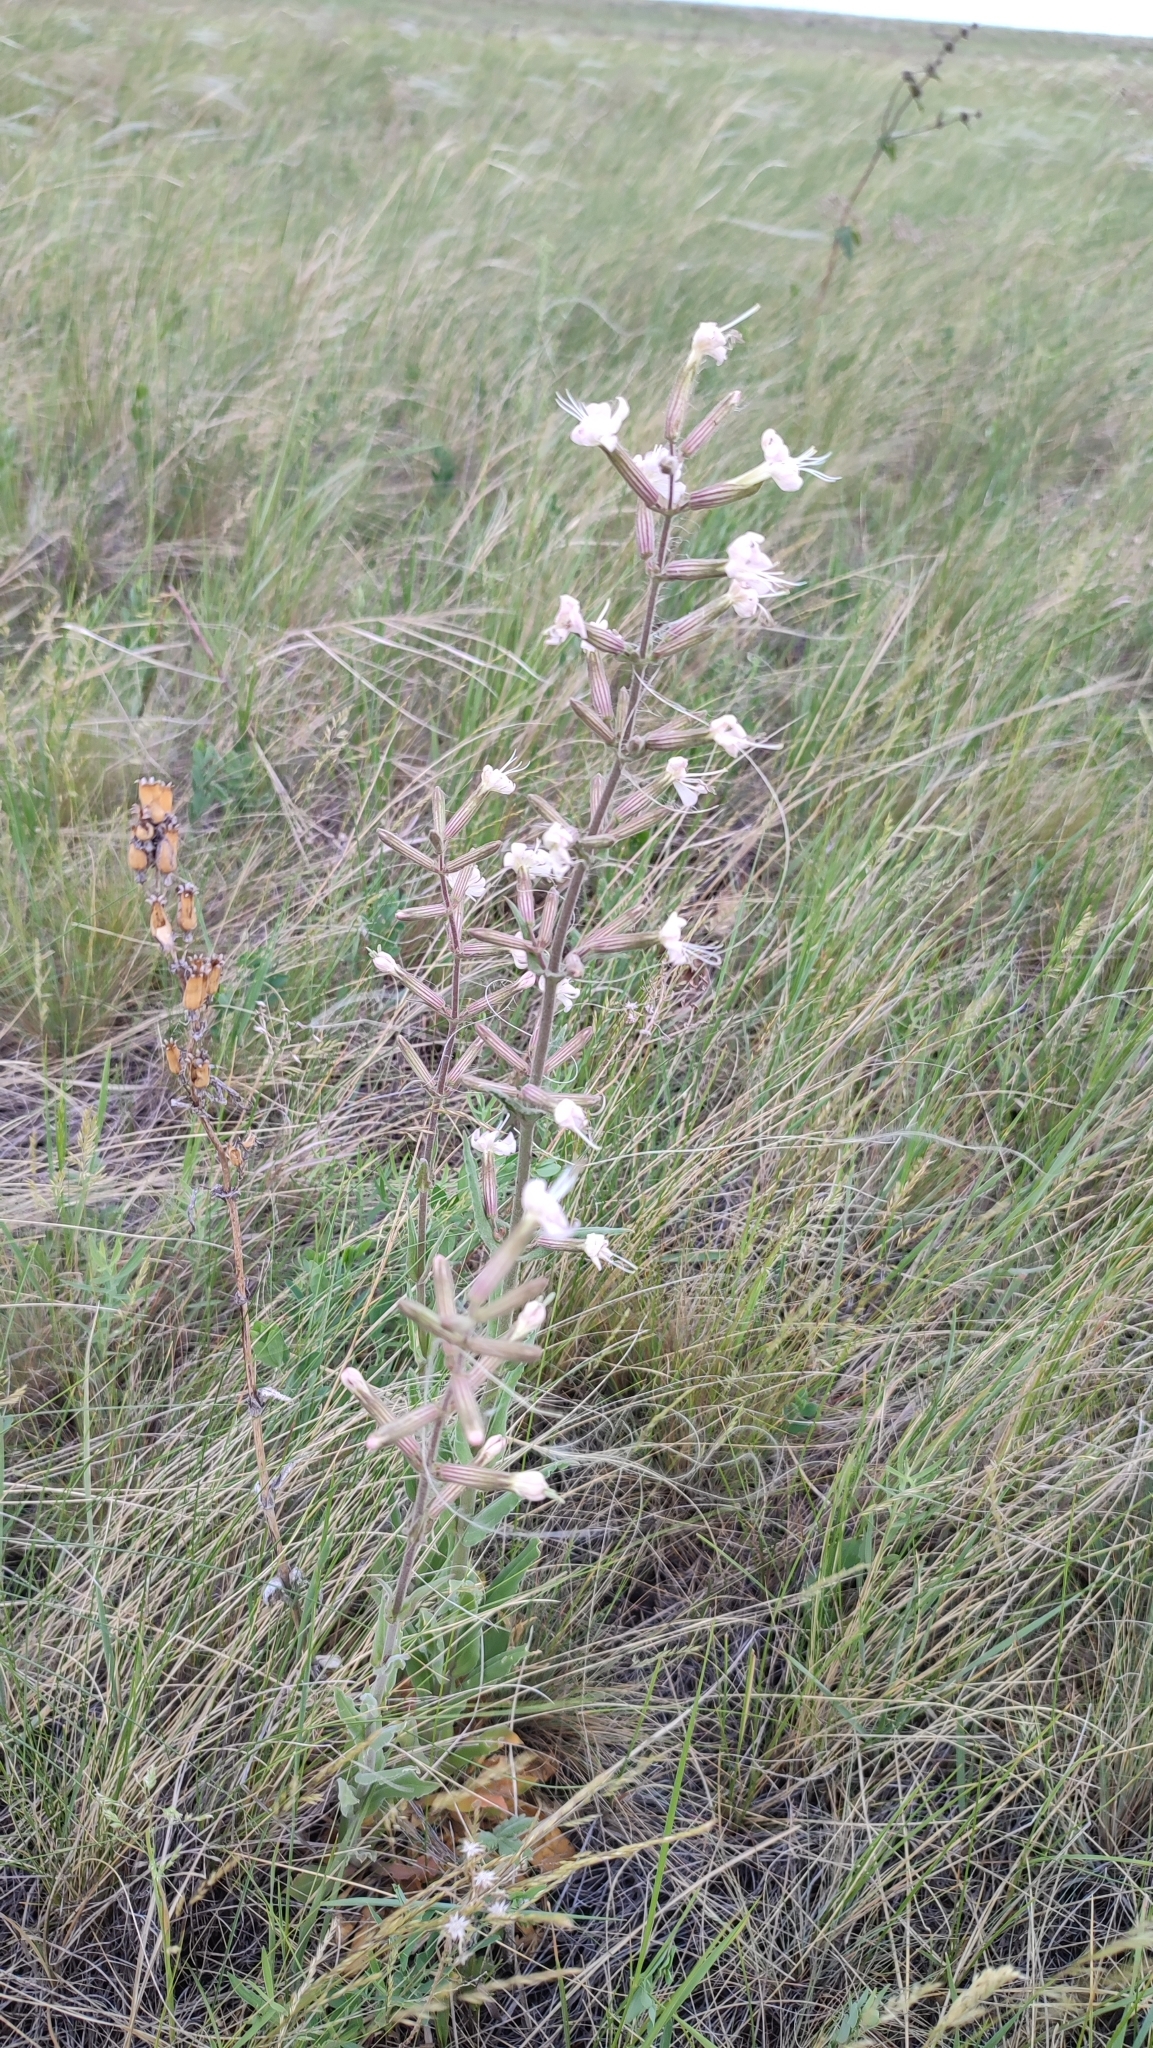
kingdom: Plantae
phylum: Tracheophyta
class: Magnoliopsida
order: Caryophyllales
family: Caryophyllaceae
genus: Silene
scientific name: Silene viscosa
